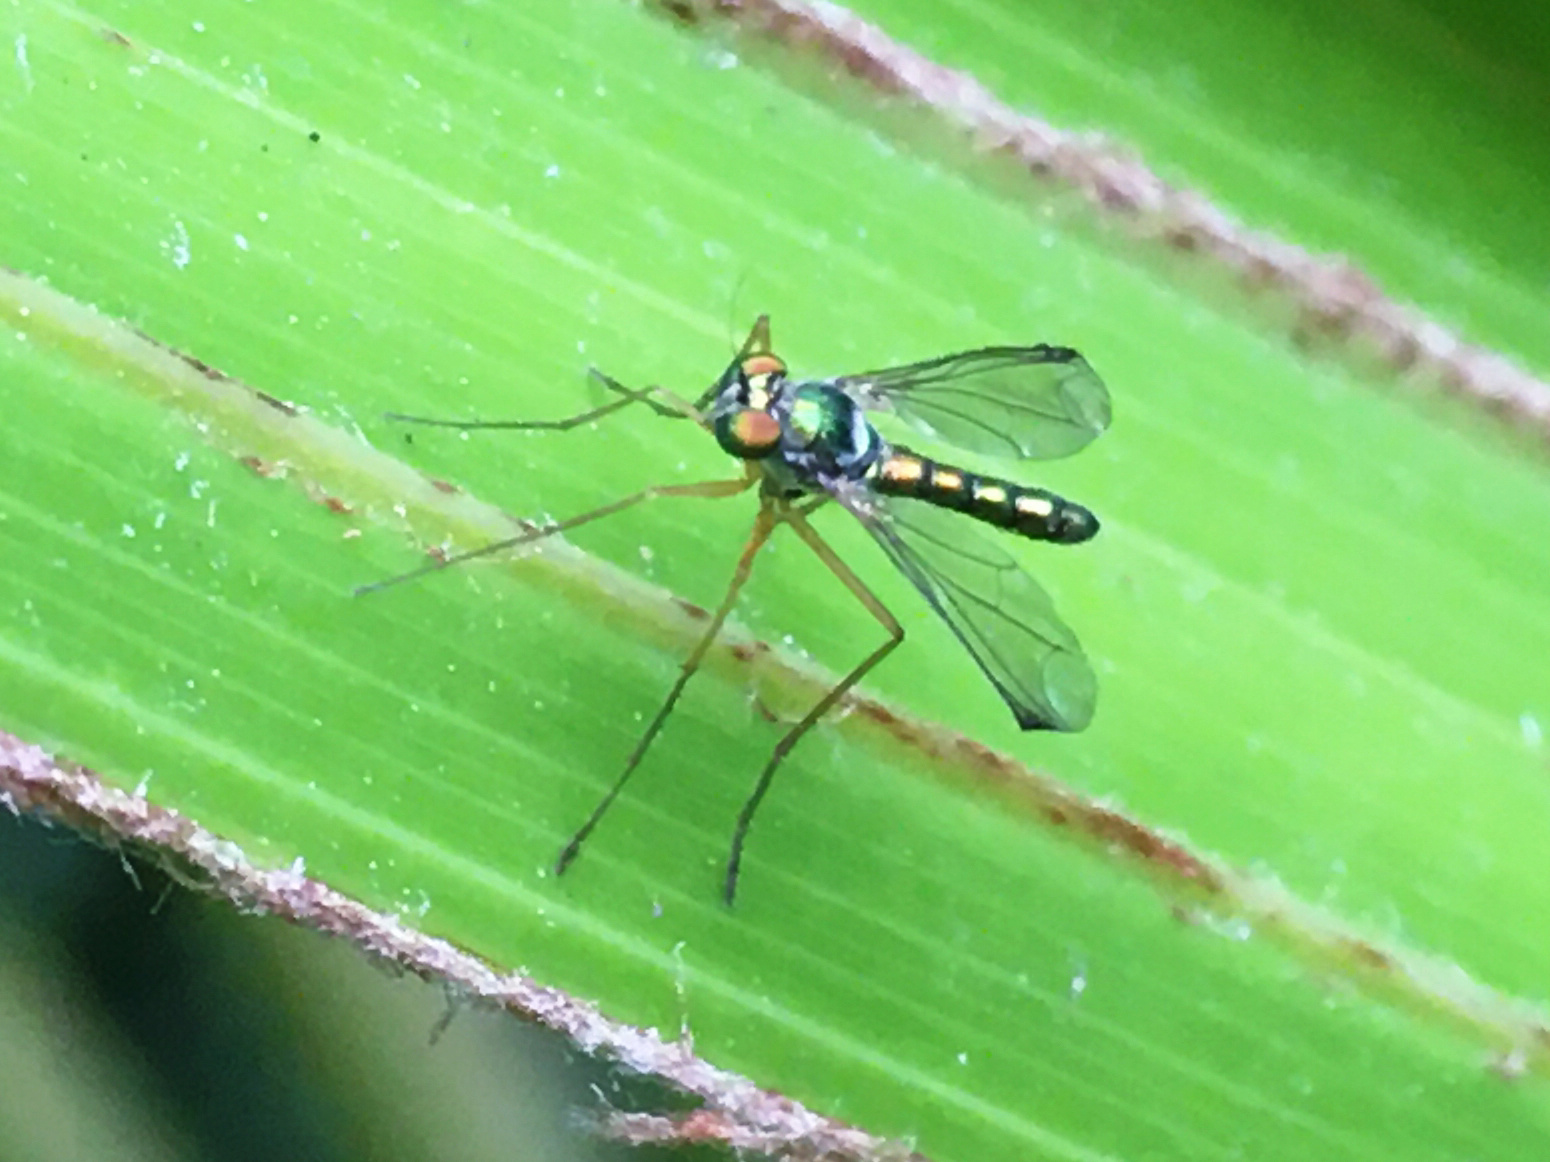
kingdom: Animalia
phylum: Arthropoda
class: Insecta
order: Diptera
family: Dolichopodidae
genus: Parentia
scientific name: Parentia anomalicosta
